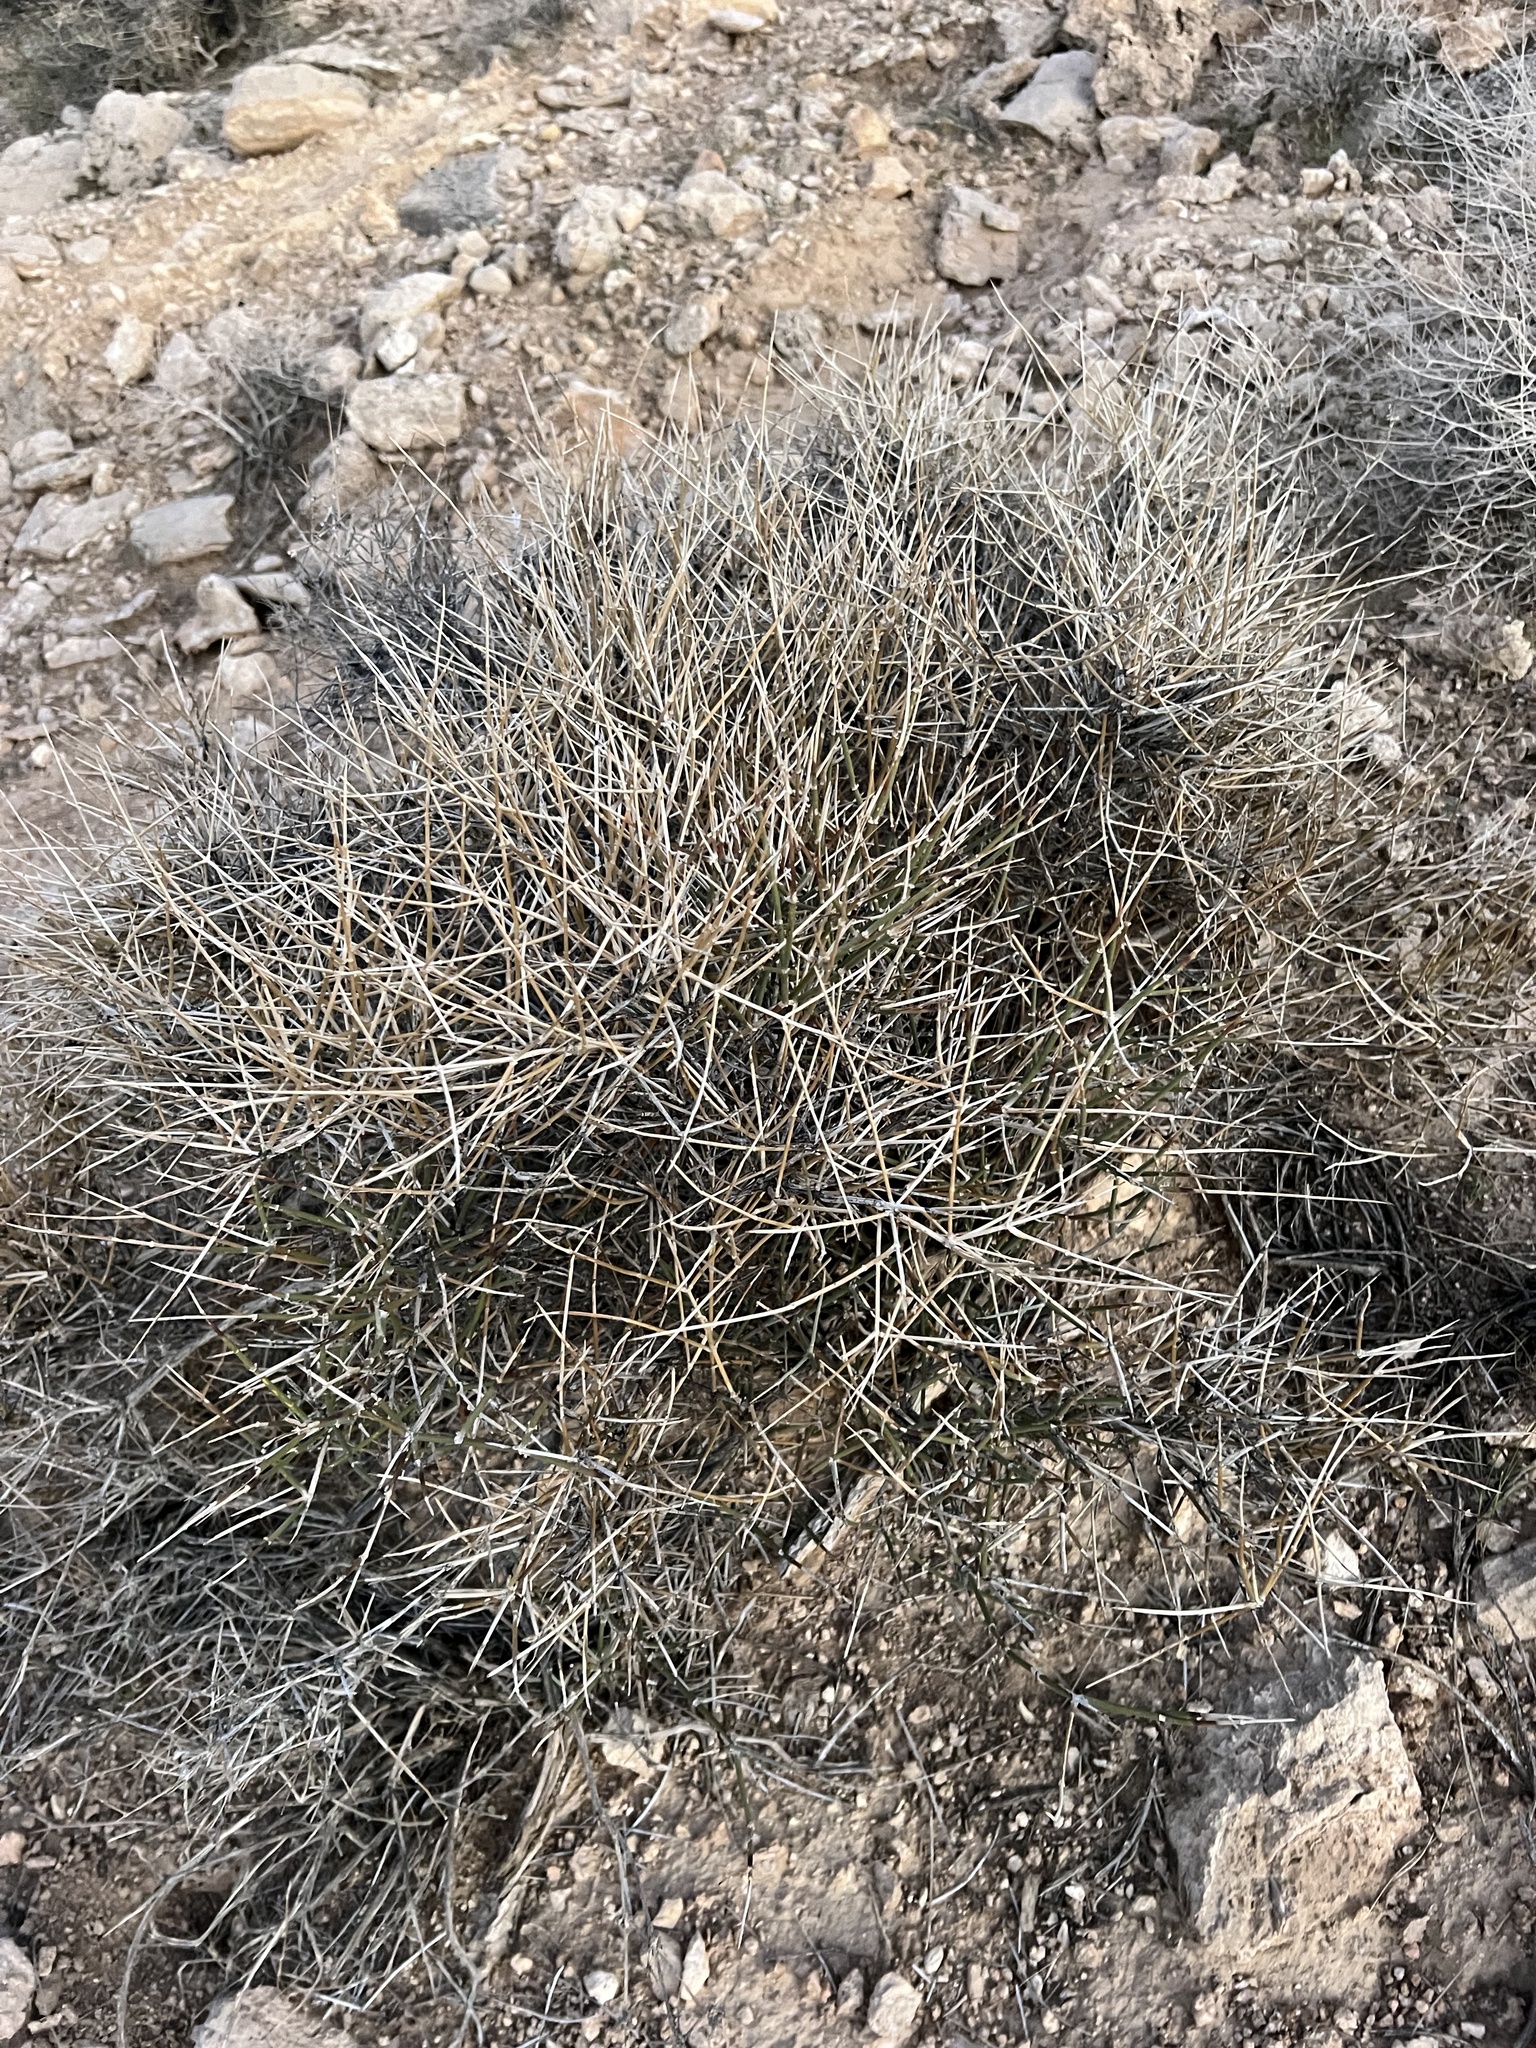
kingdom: Plantae
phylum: Tracheophyta
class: Gnetopsida
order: Ephedrales
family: Ephedraceae
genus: Ephedra
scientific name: Ephedra nevadensis
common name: Gray ephedra
